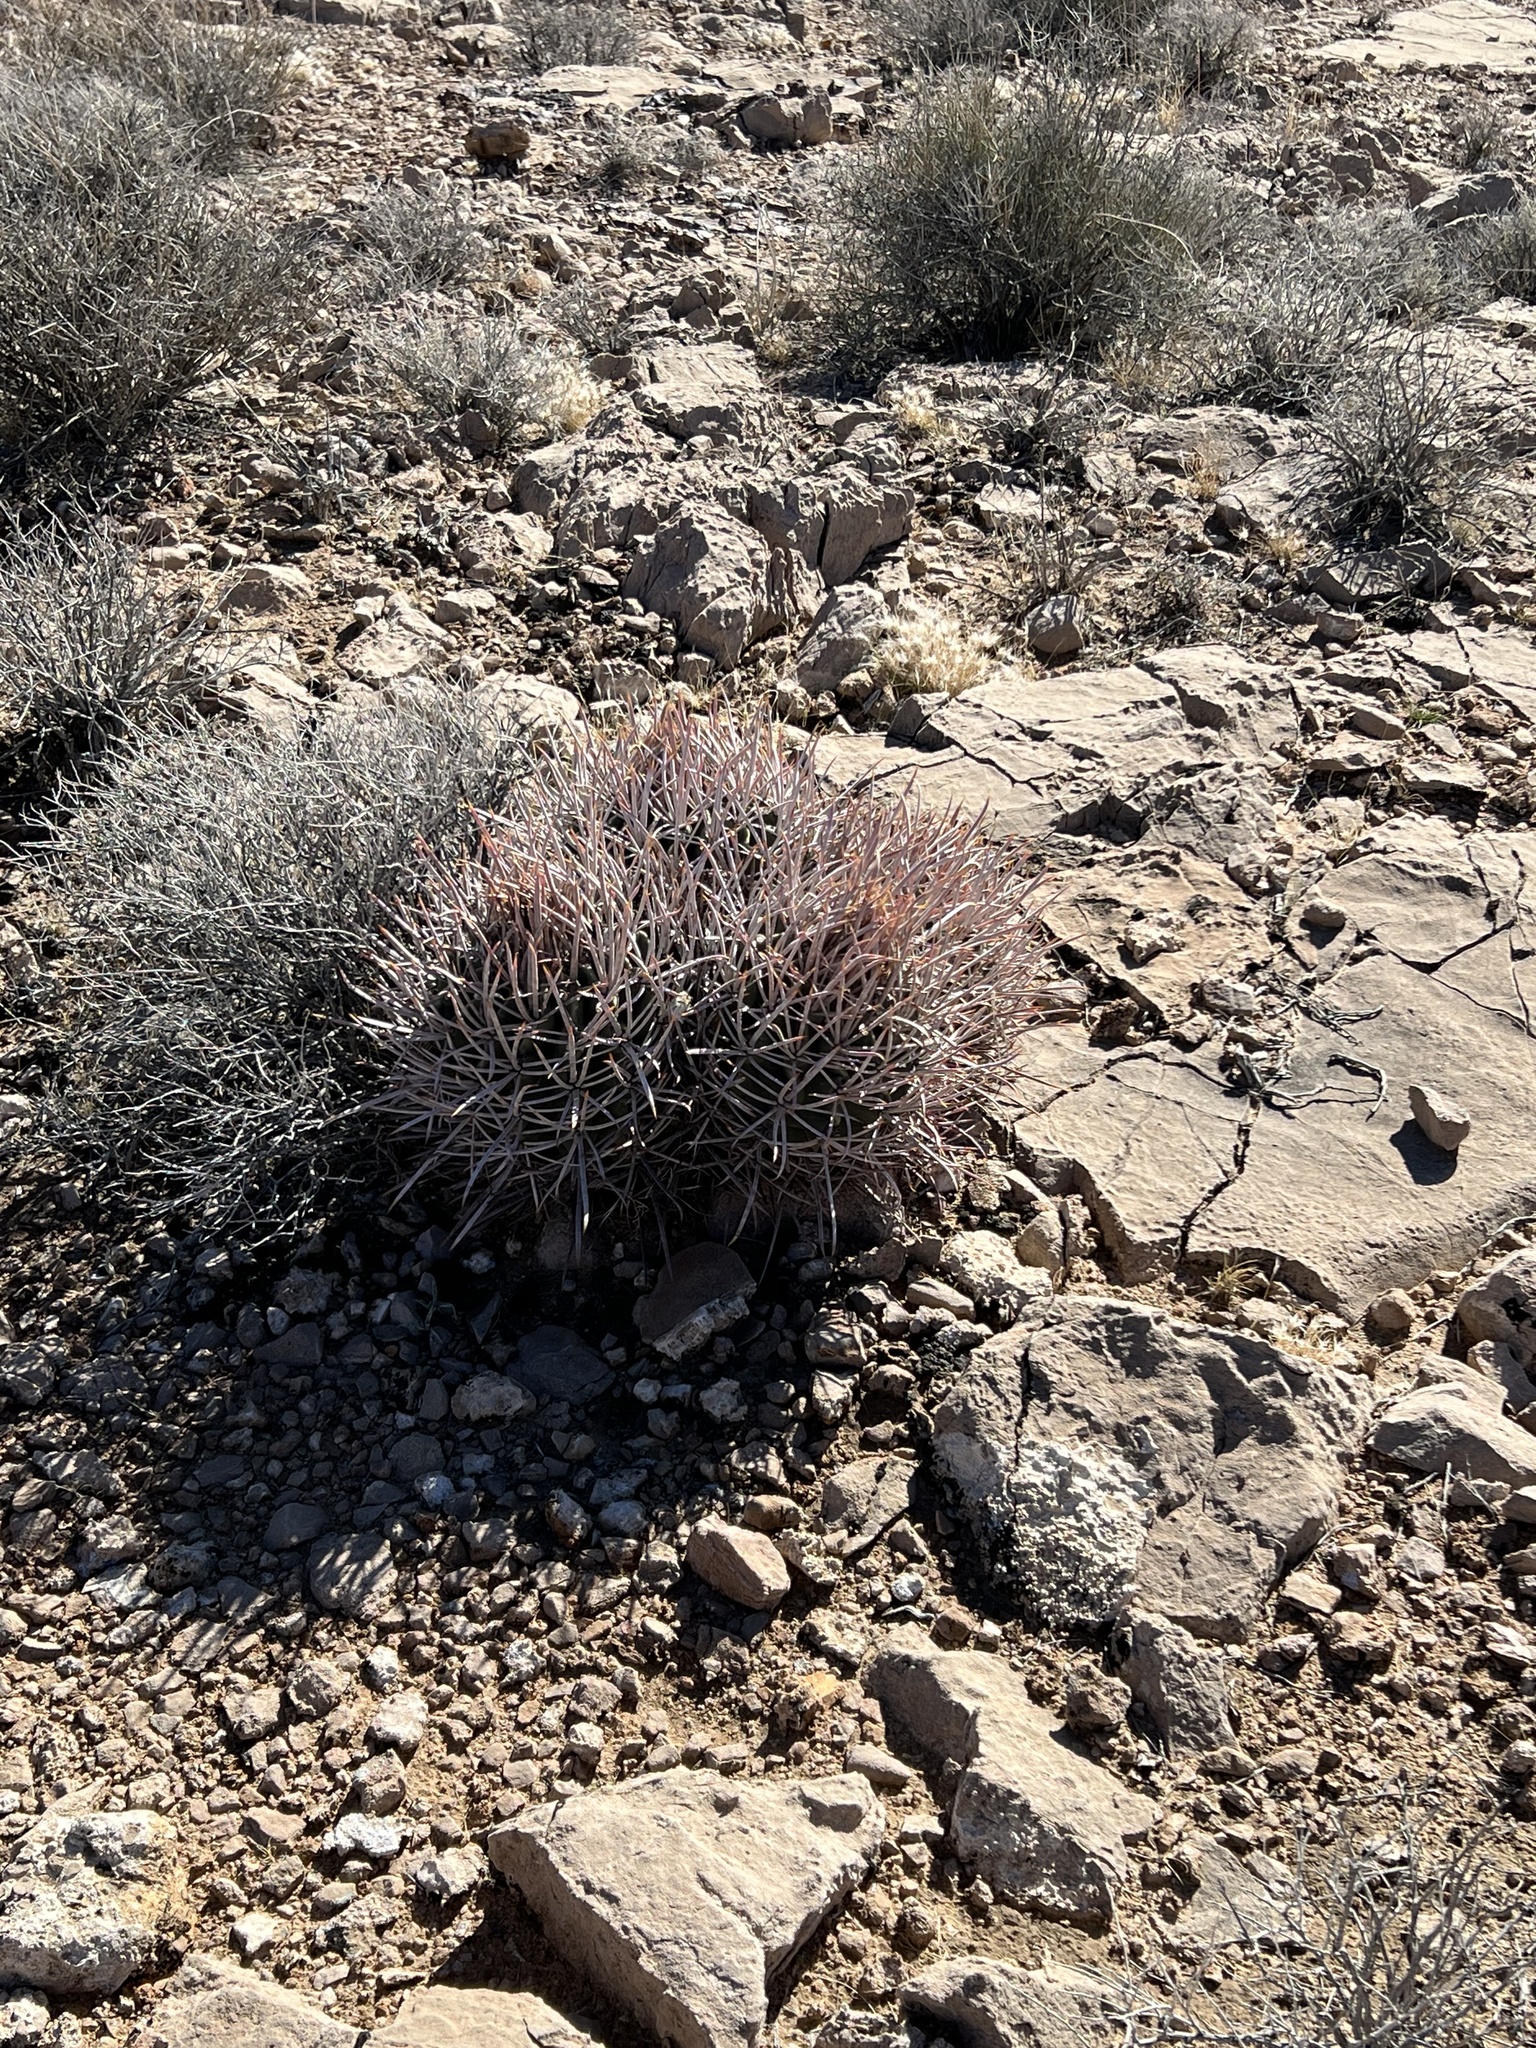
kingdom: Plantae
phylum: Tracheophyta
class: Magnoliopsida
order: Caryophyllales
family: Cactaceae
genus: Echinocactus
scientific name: Echinocactus polycephalus
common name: Cottontop cactus
